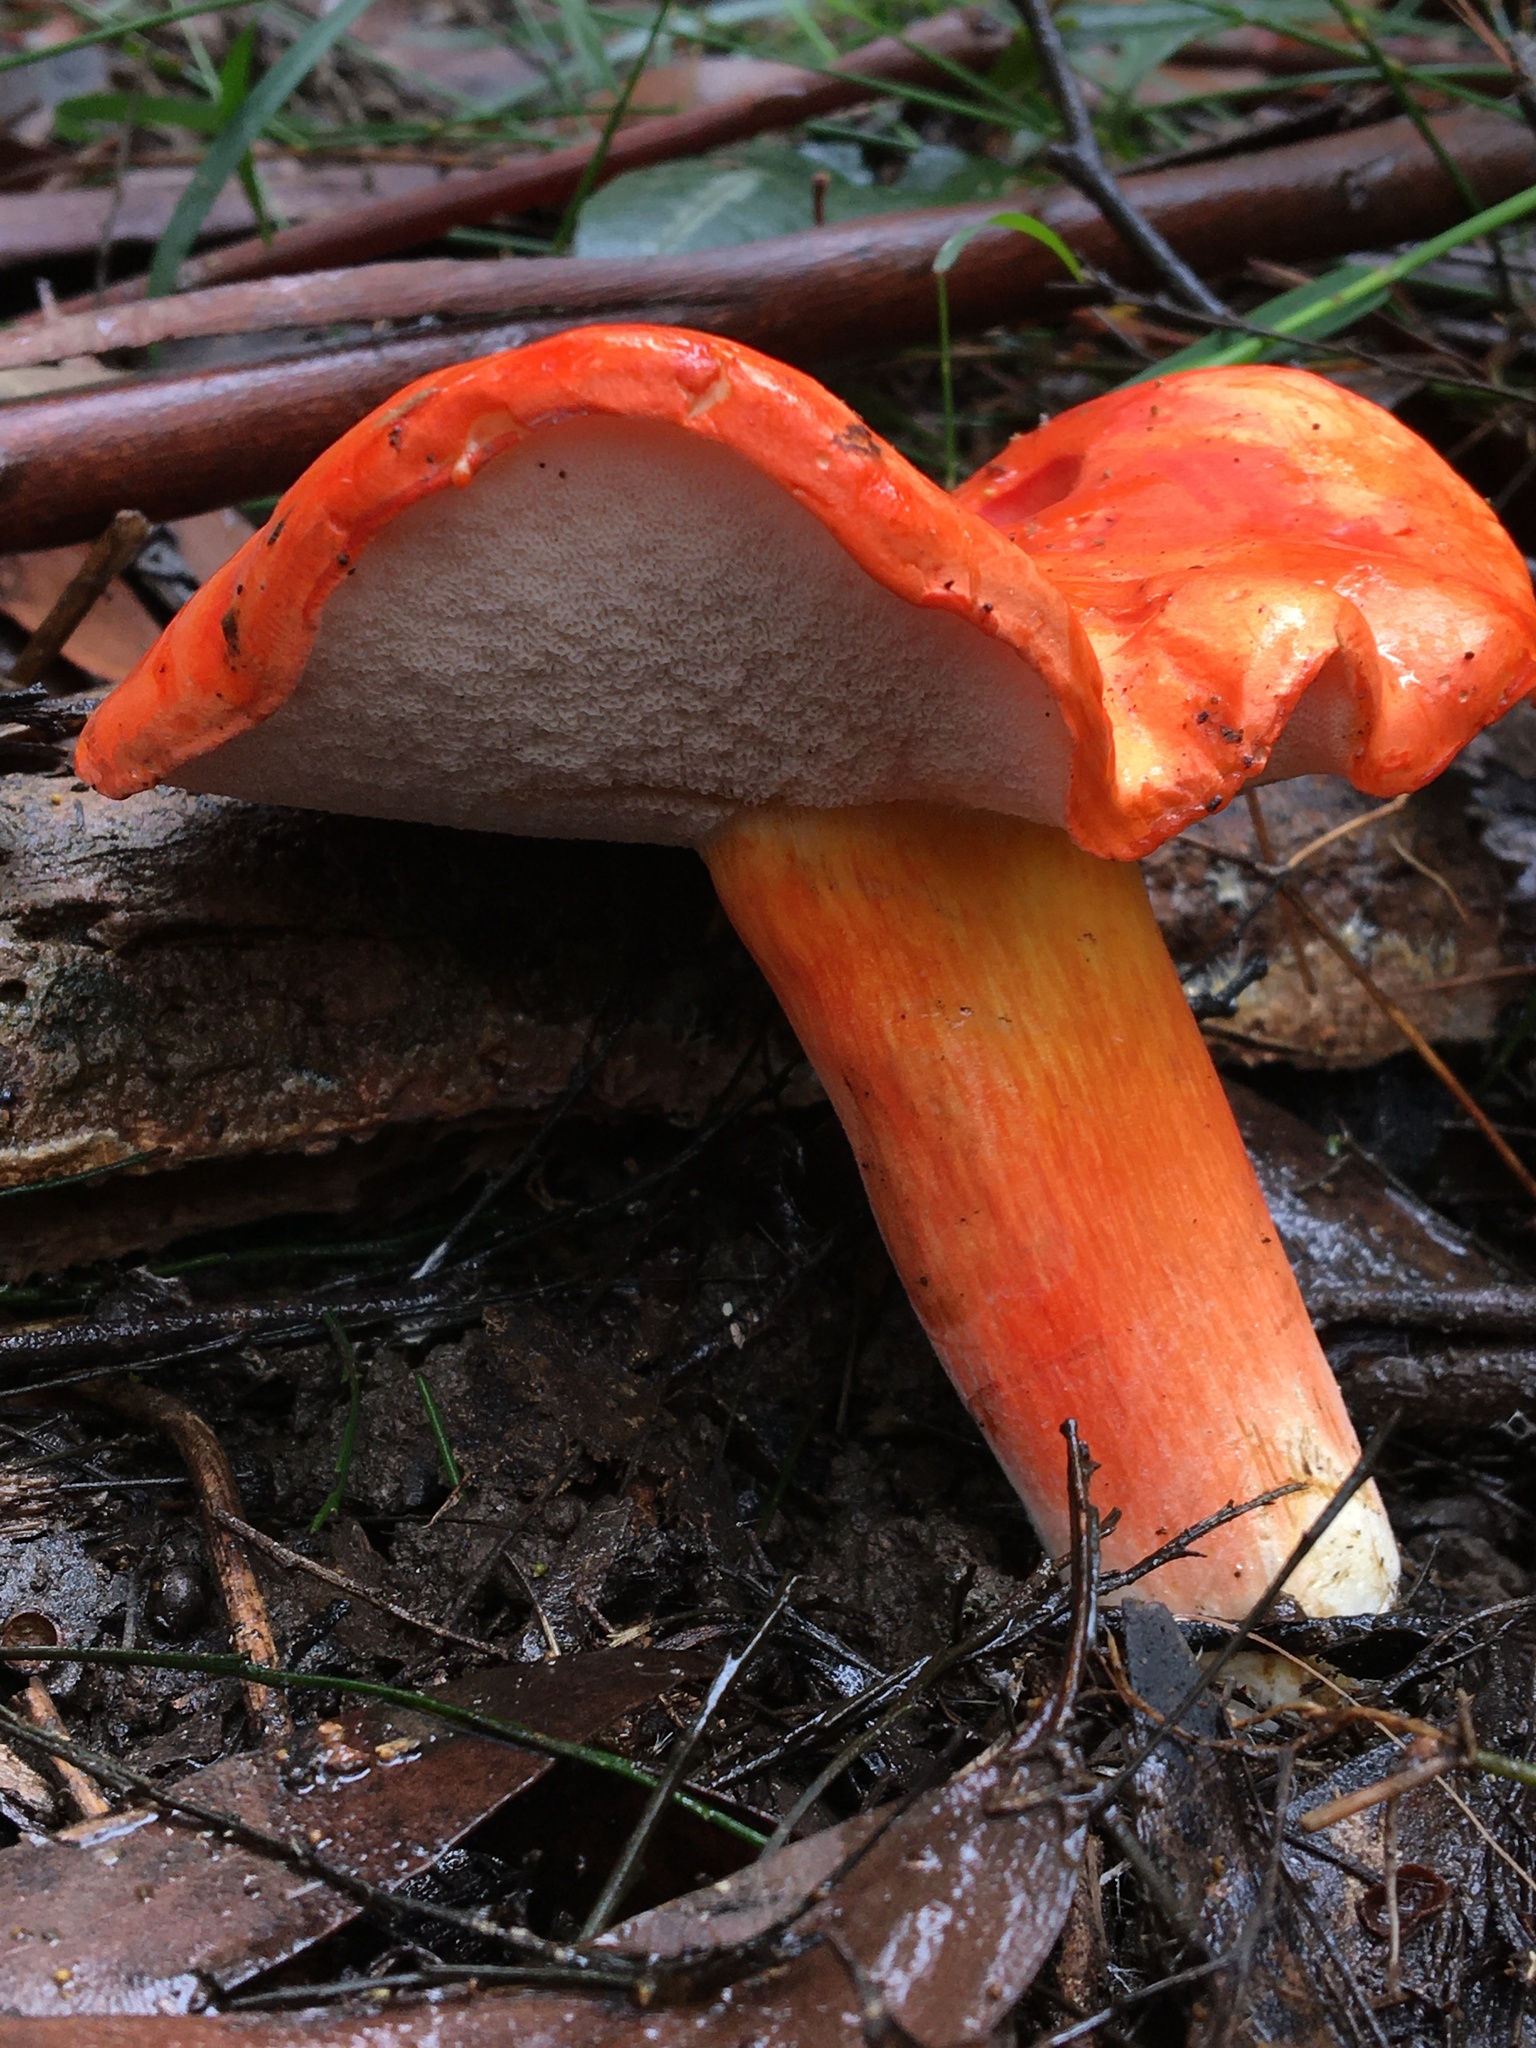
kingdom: Fungi
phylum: Basidiomycota
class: Agaricomycetes
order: Boletales
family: Boletaceae
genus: Tylopilus
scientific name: Tylopilus balloui
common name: Burnt-orange bolete
